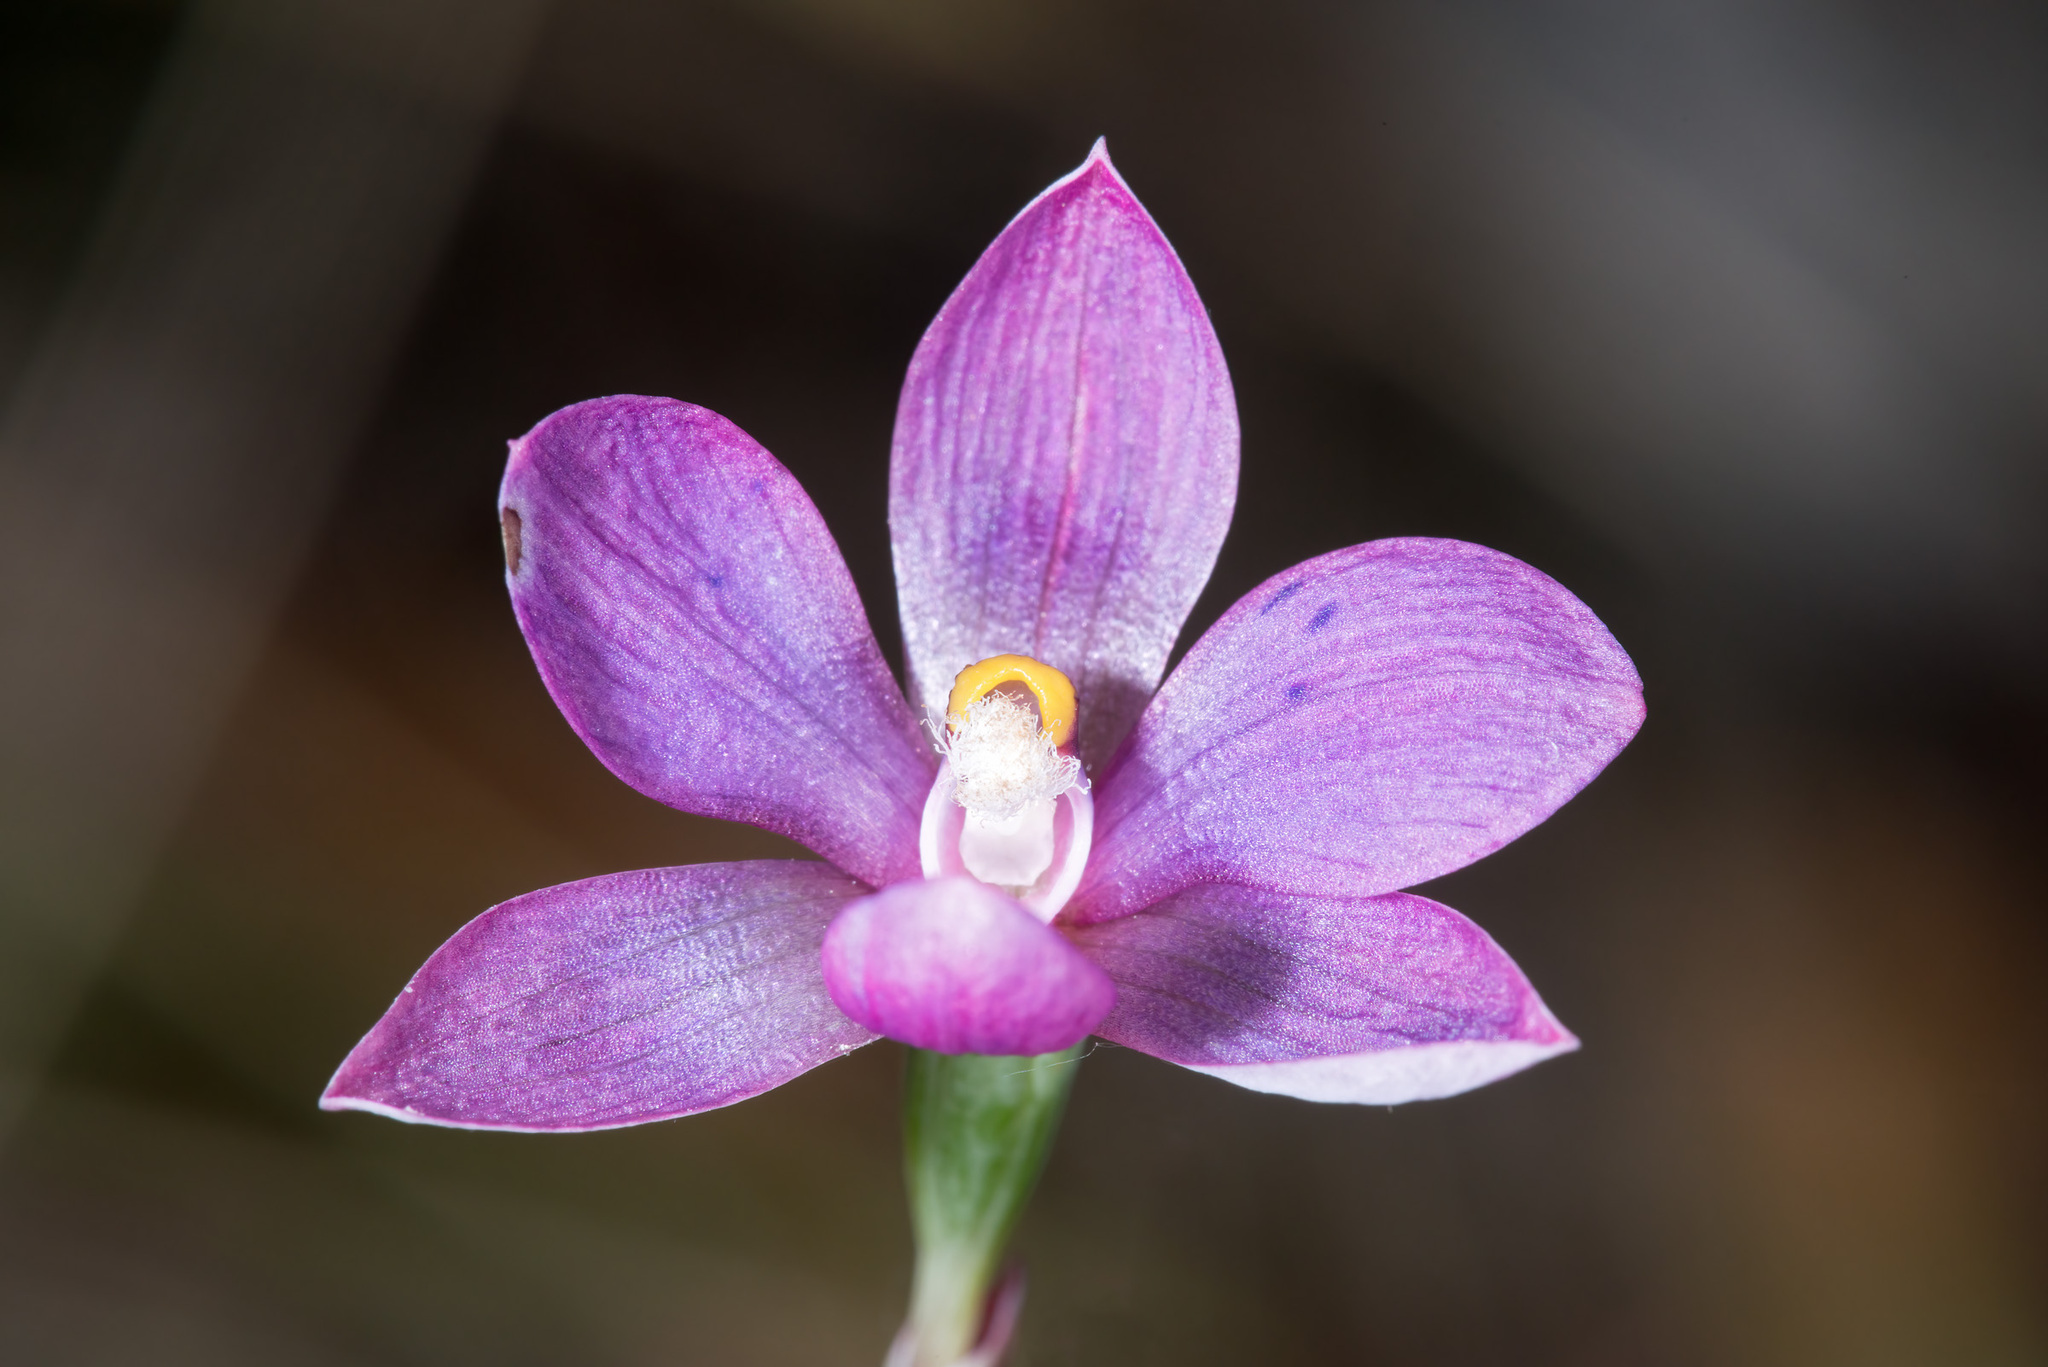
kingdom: Plantae
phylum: Tracheophyta
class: Liliopsida
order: Asparagales
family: Orchidaceae
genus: Thelymitra
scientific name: Thelymitra nervosa
